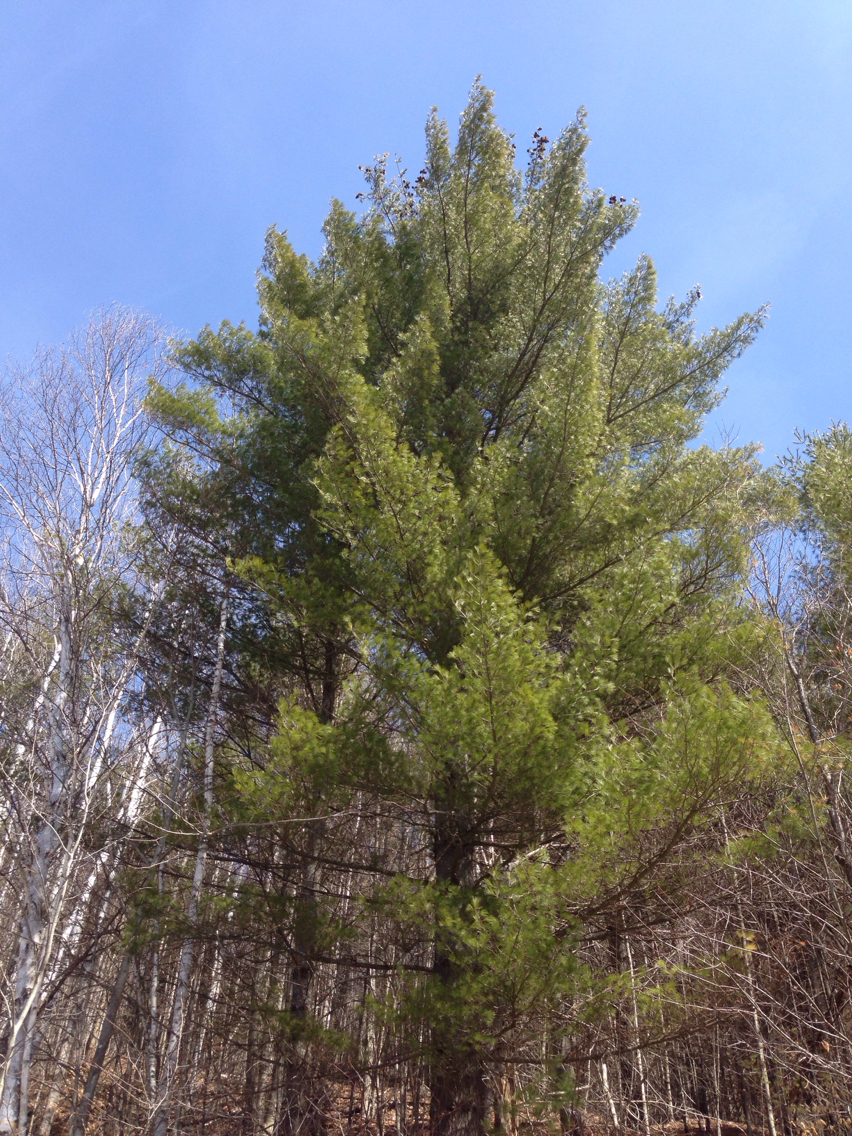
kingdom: Plantae
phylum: Tracheophyta
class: Pinopsida
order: Pinales
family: Pinaceae
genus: Pinus
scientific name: Pinus strobus
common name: Weymouth pine
